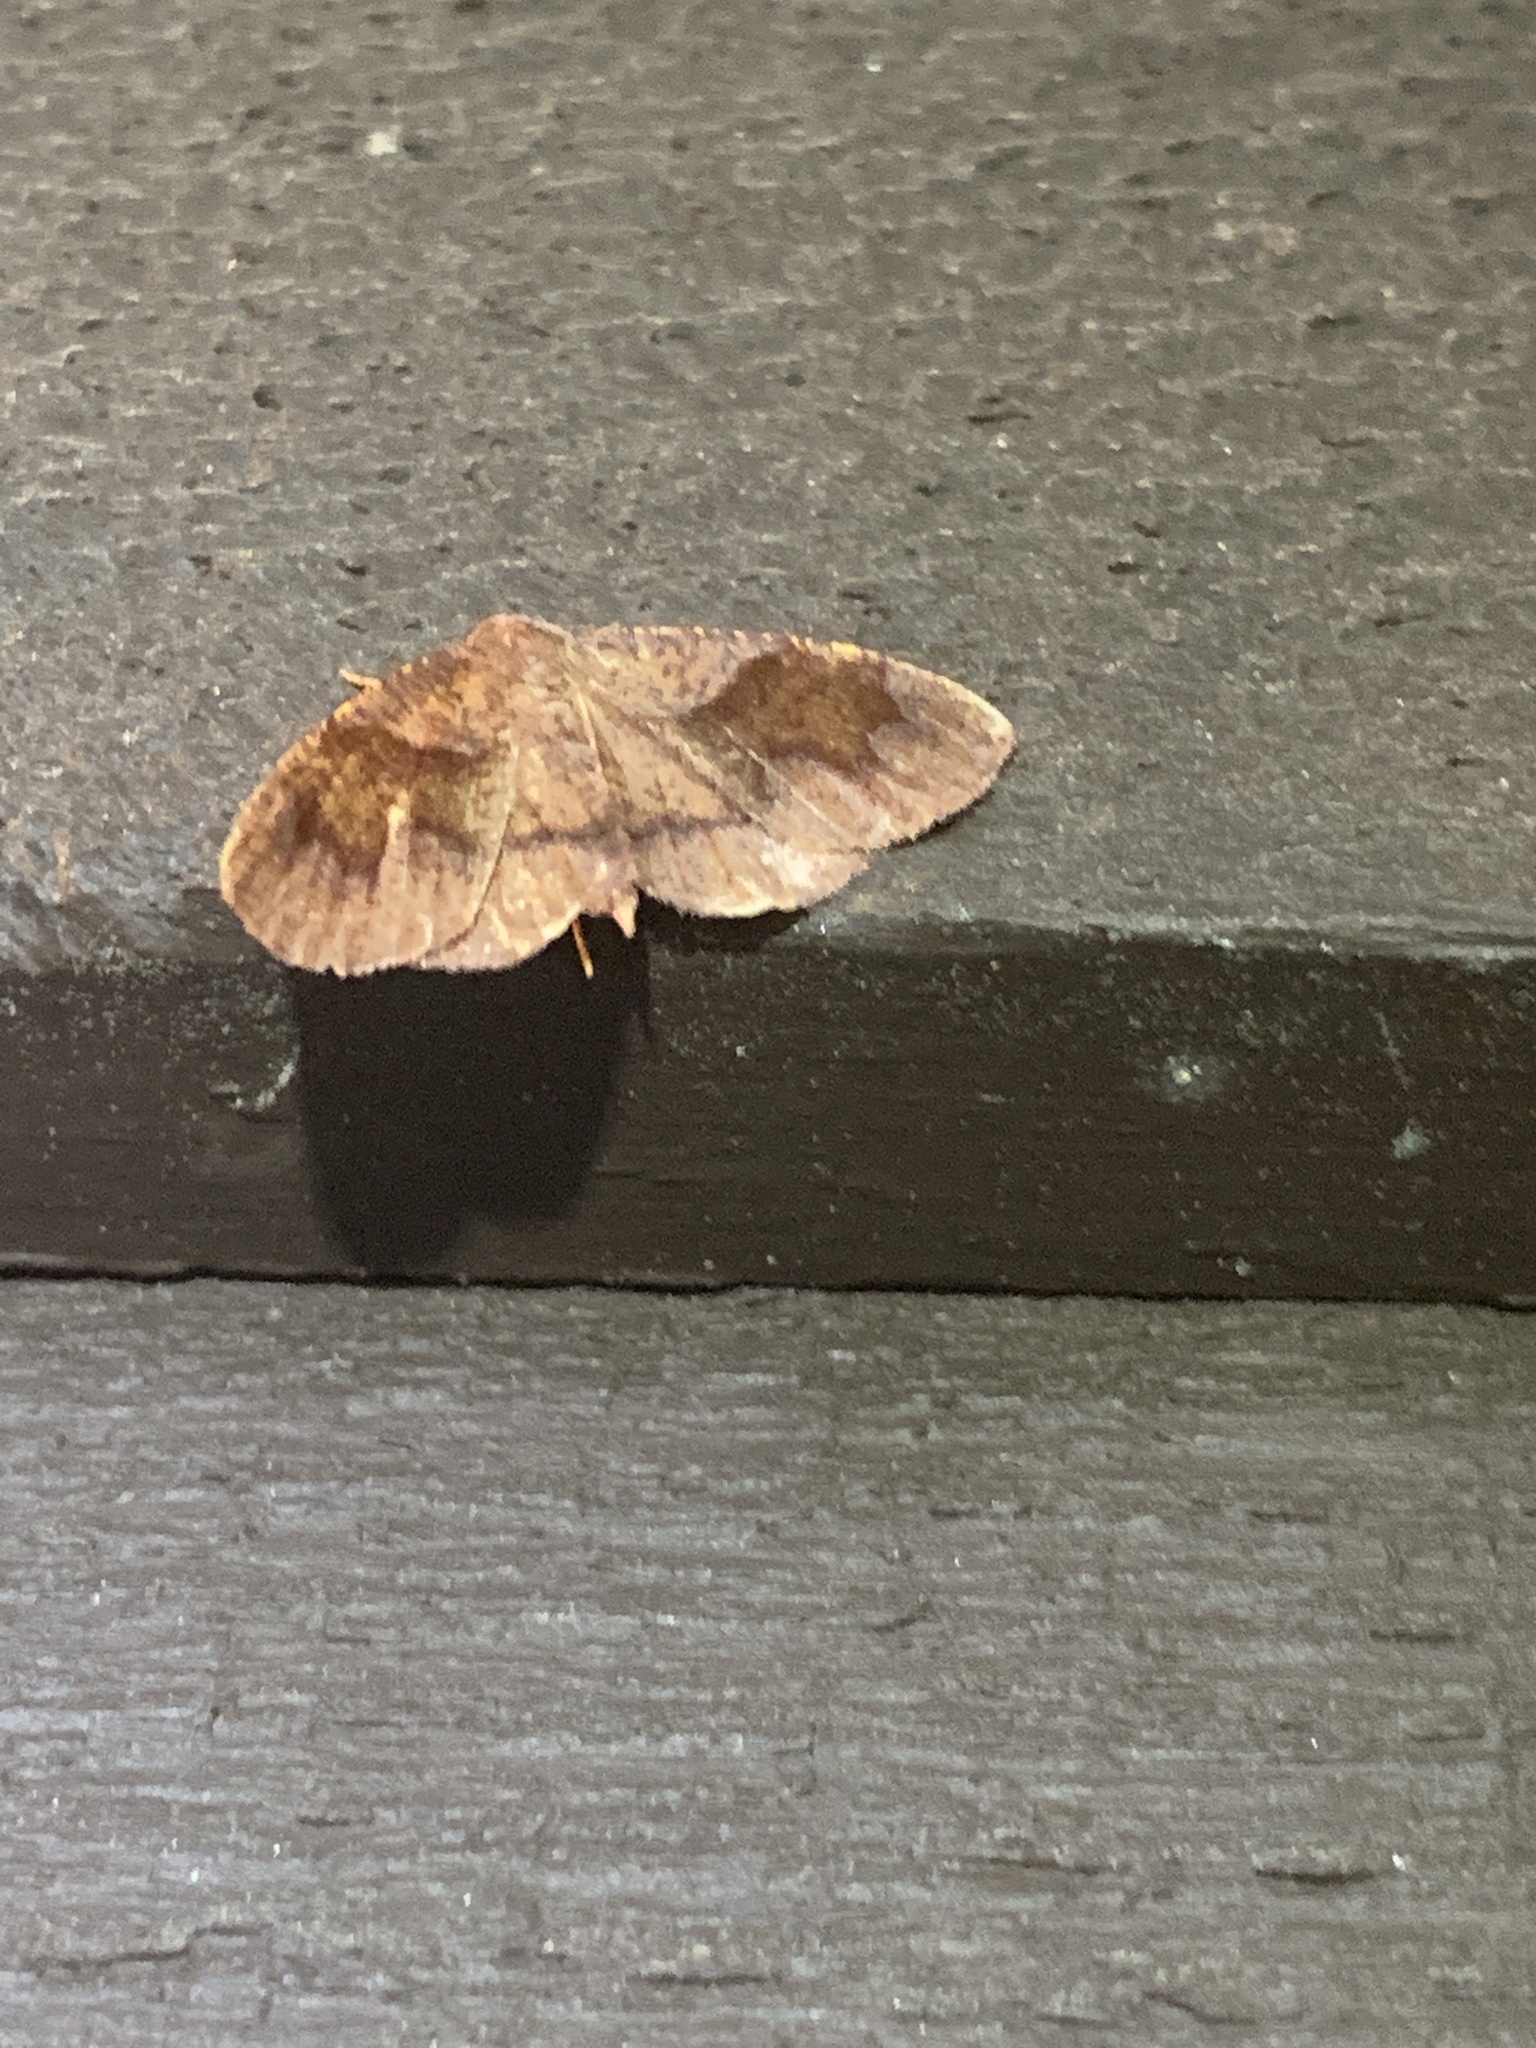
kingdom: Animalia
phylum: Arthropoda
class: Insecta
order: Lepidoptera
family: Geometridae
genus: Plagodis
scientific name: Plagodis pulveraria
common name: Barred umber
